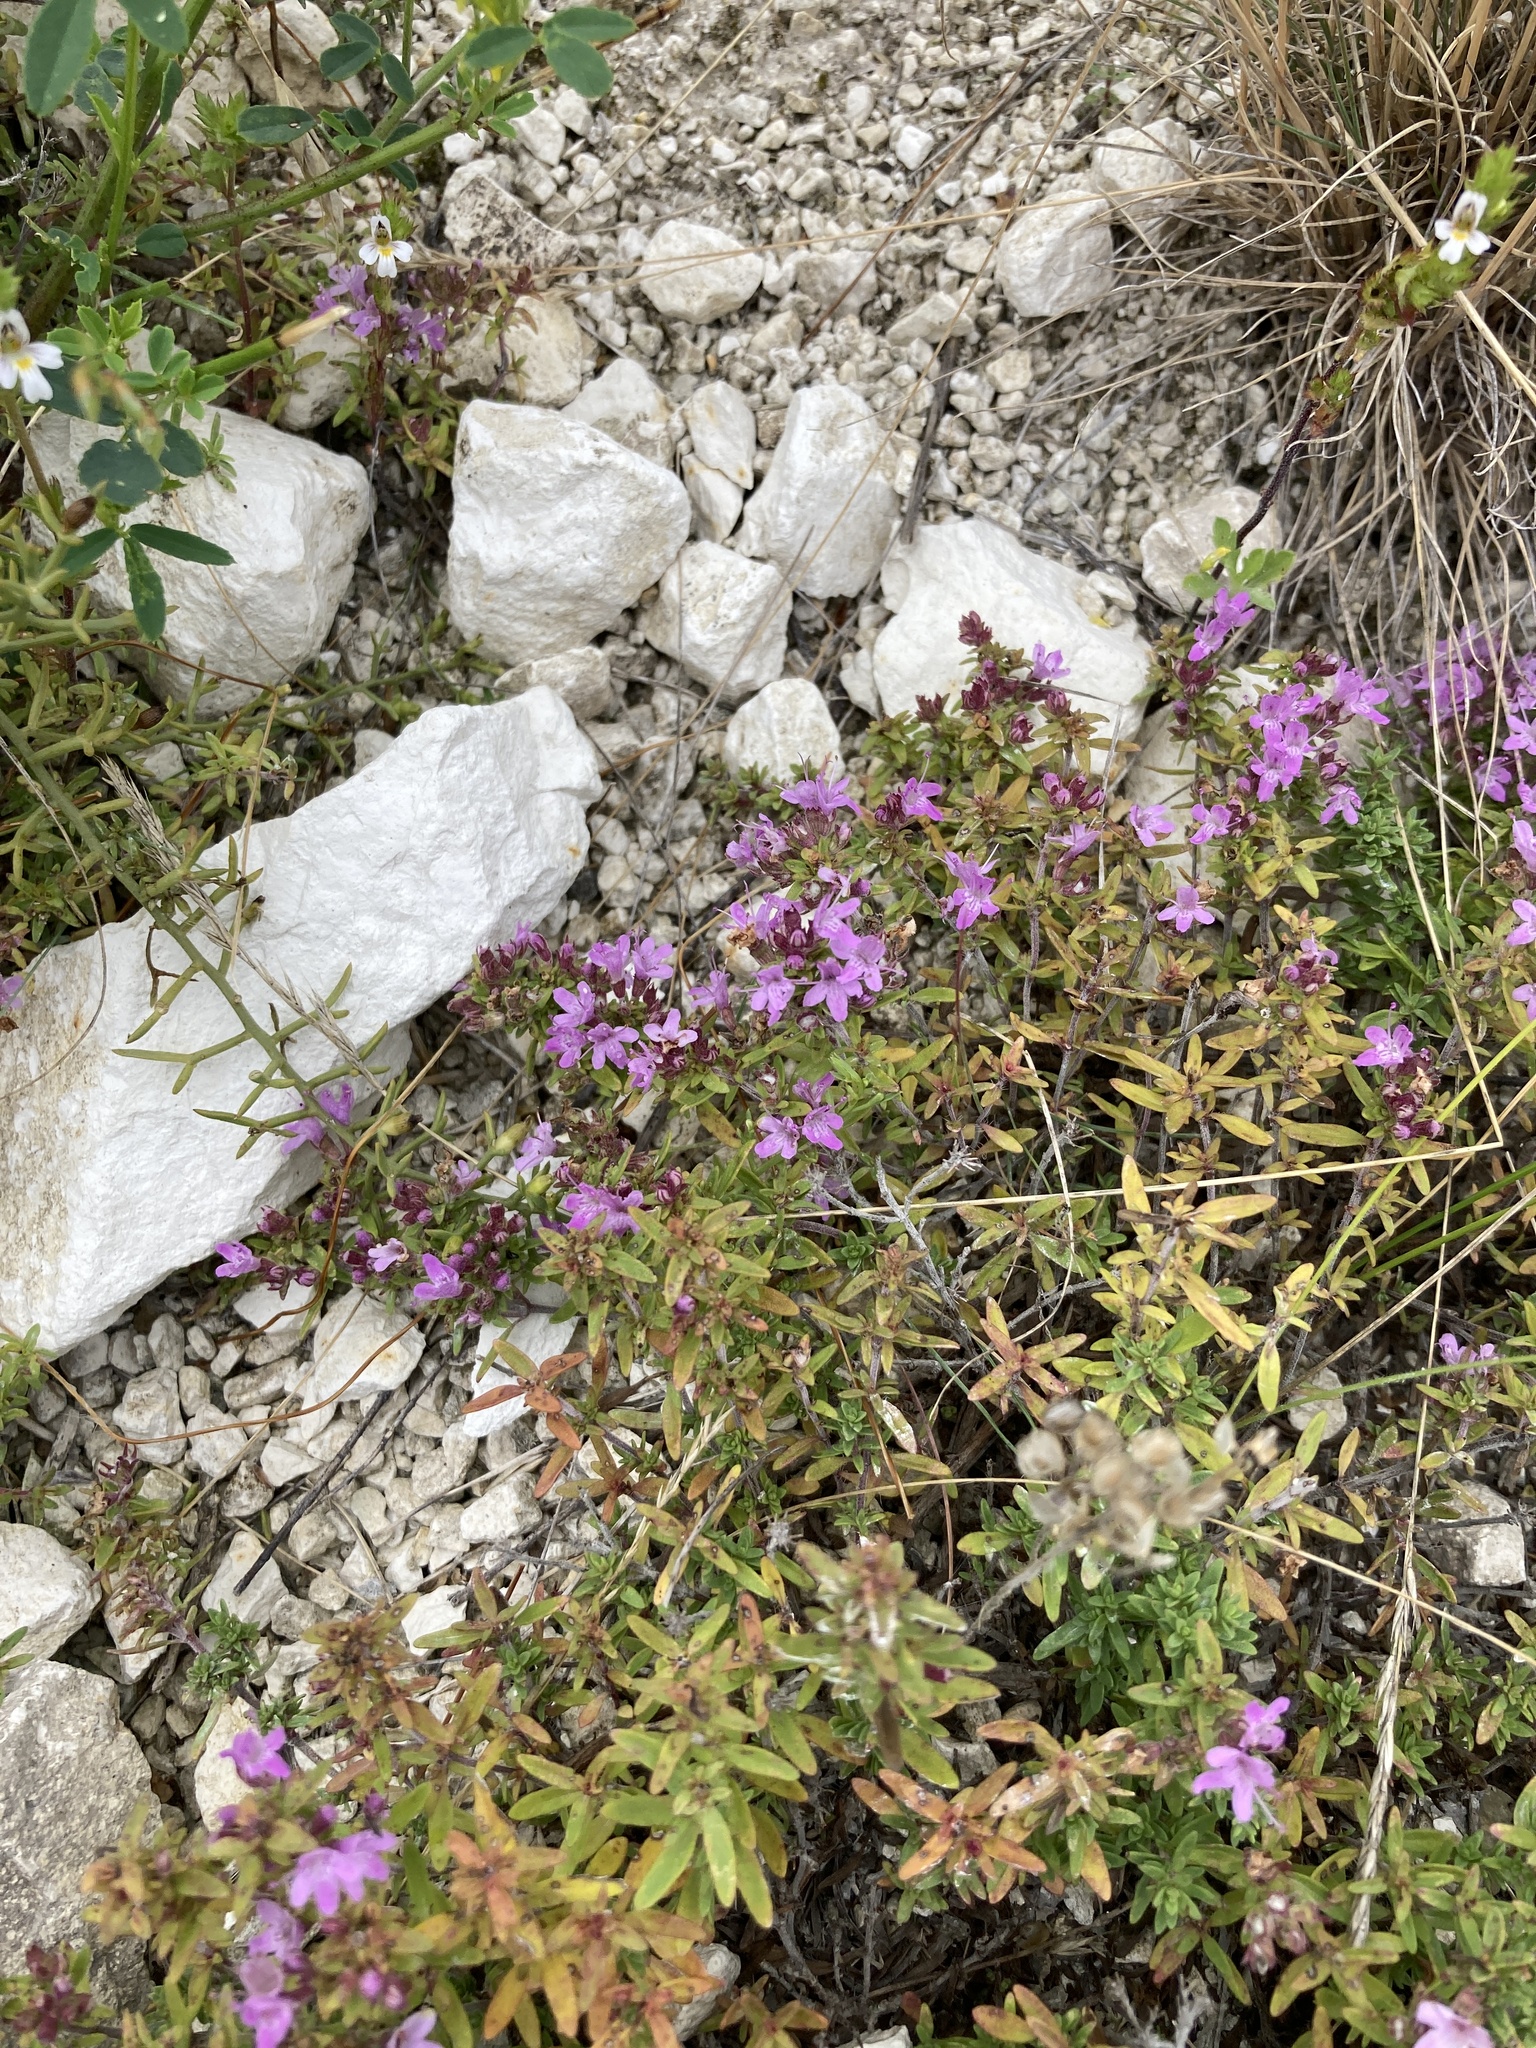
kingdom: Plantae
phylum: Tracheophyta
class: Magnoliopsida
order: Lamiales
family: Lamiaceae
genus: Thymus
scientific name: Thymus calcareus
